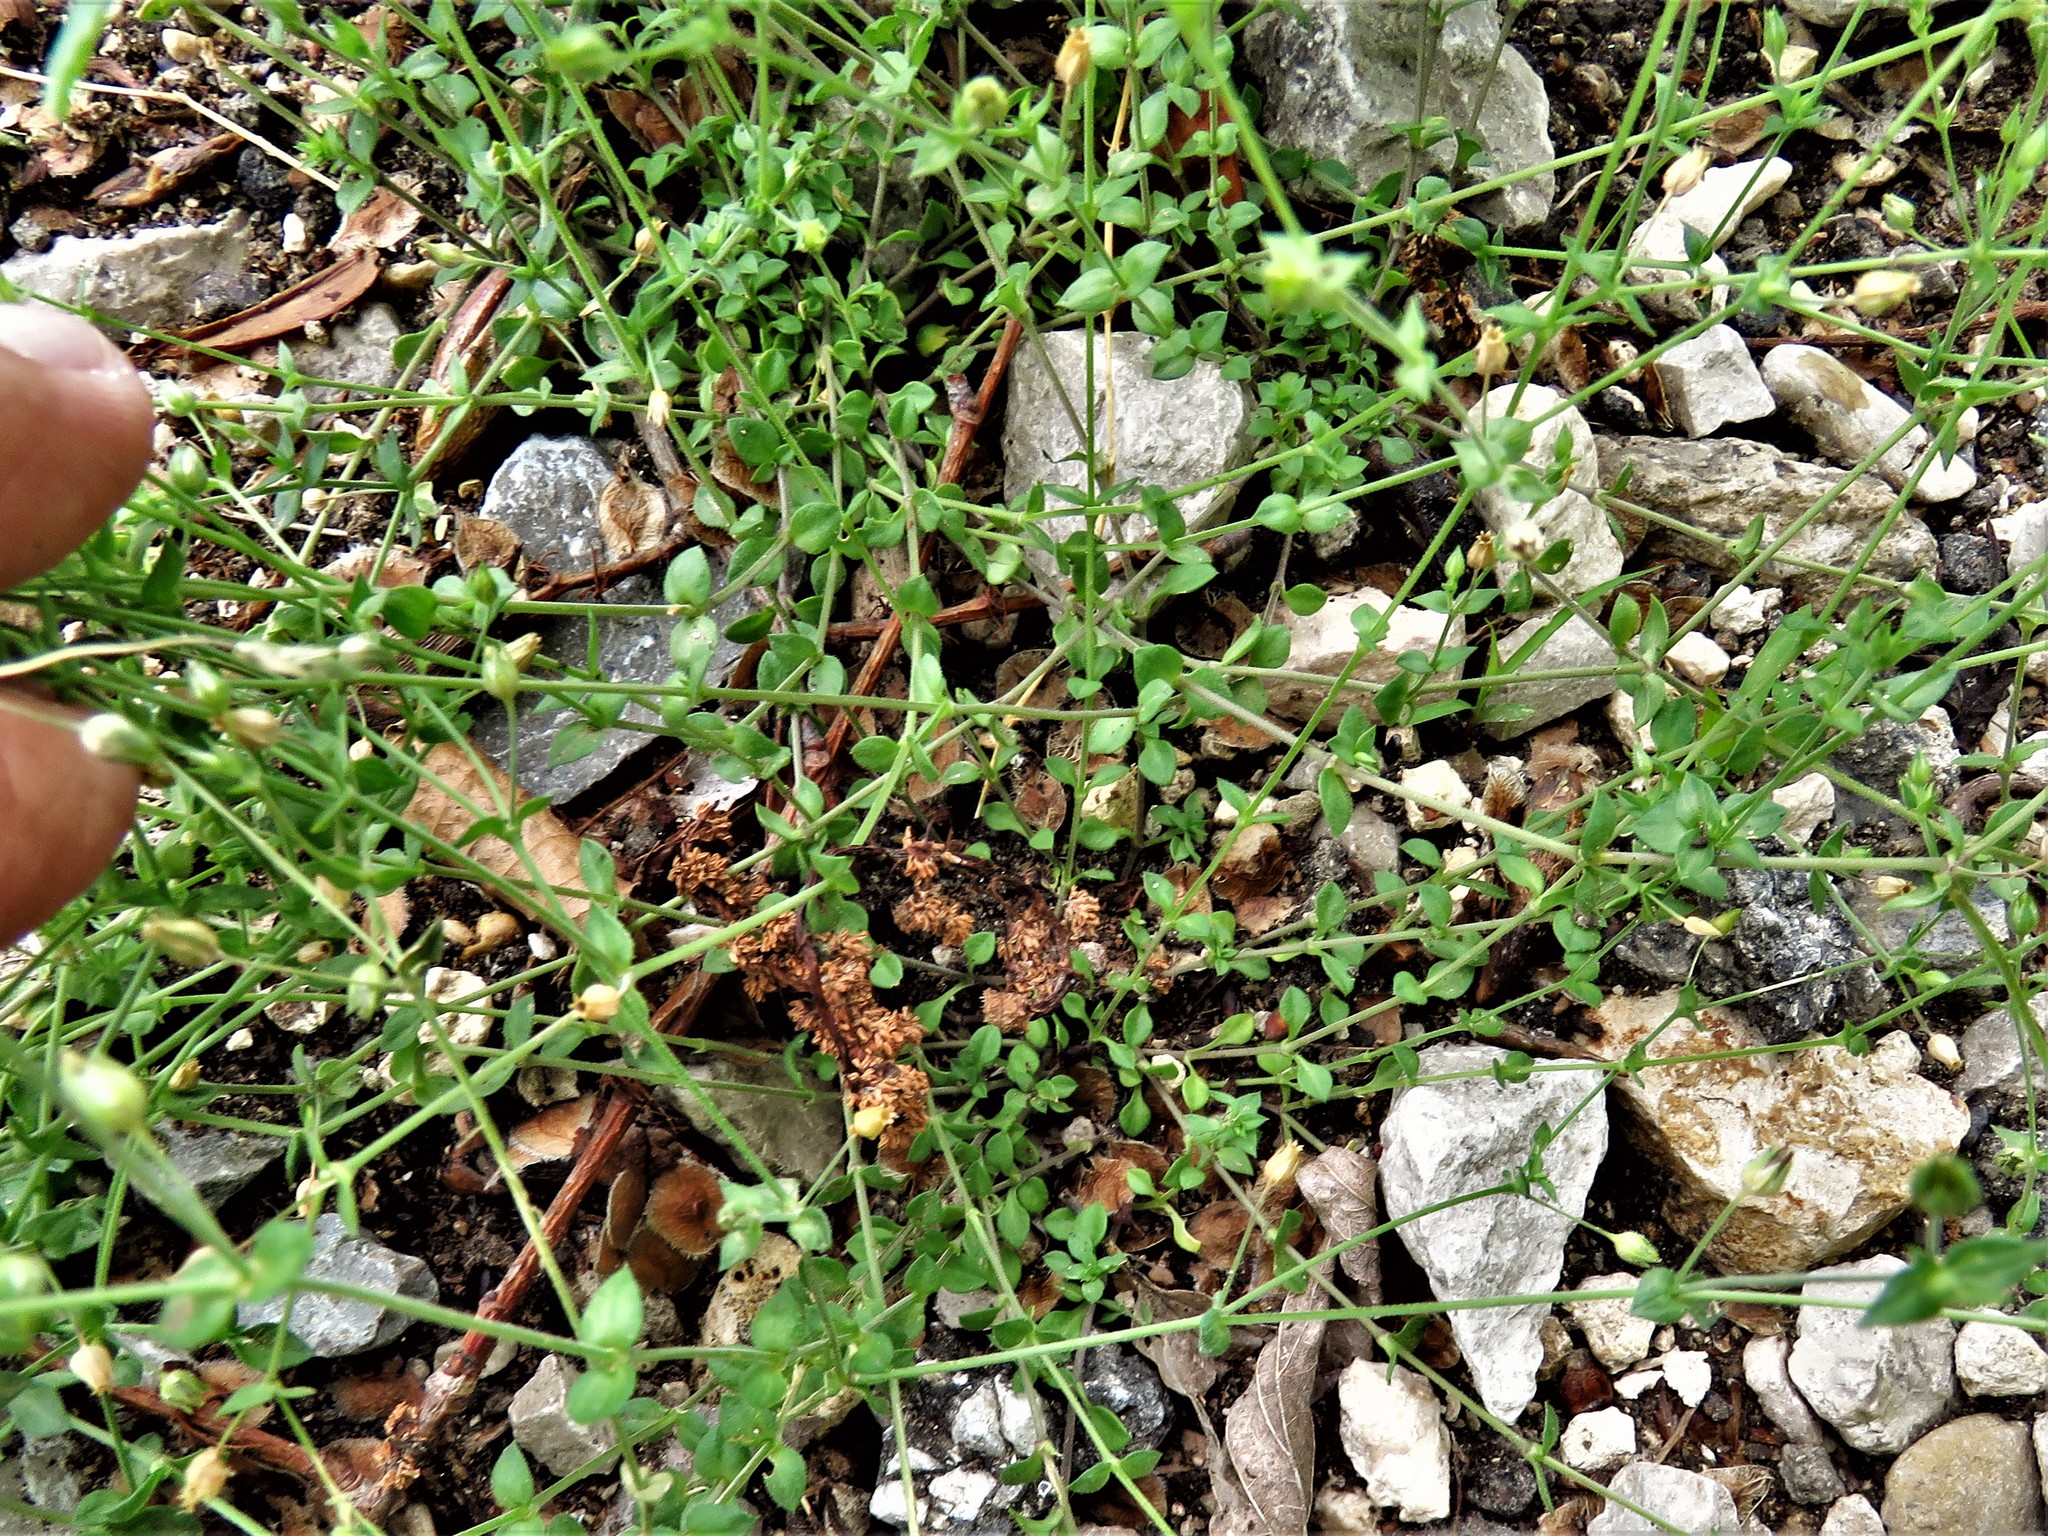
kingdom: Plantae
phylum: Tracheophyta
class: Magnoliopsida
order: Caryophyllales
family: Caryophyllaceae
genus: Stellaria
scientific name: Stellaria media
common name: Common chickweed
